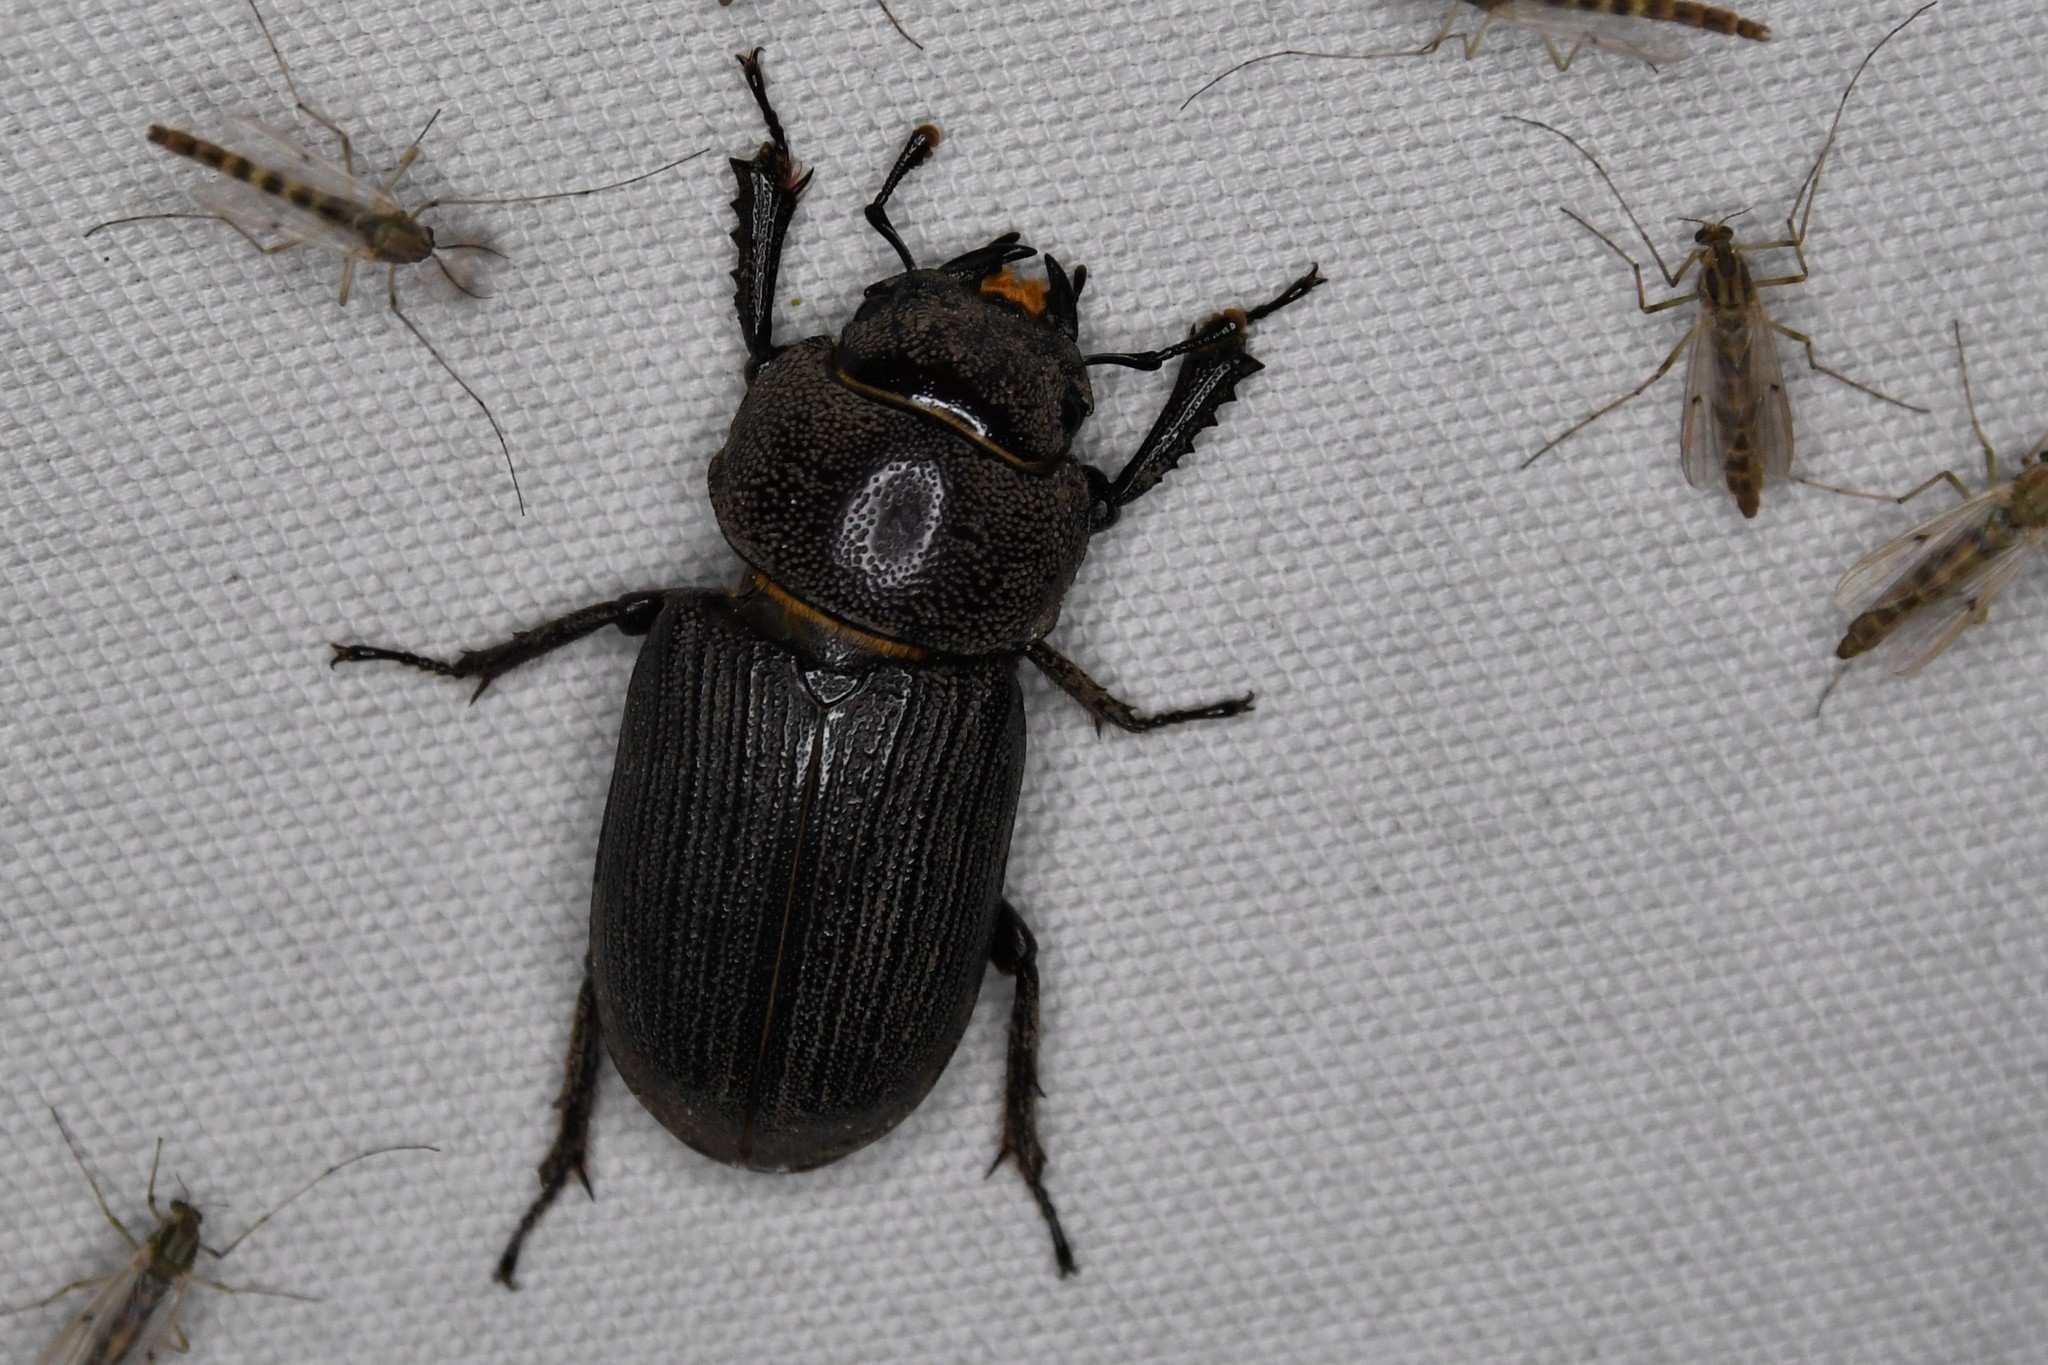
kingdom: Animalia
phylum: Arthropoda
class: Insecta
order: Coleoptera
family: Lucanidae
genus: Dorcus
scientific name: Dorcus parallelus
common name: Antelope beetle
